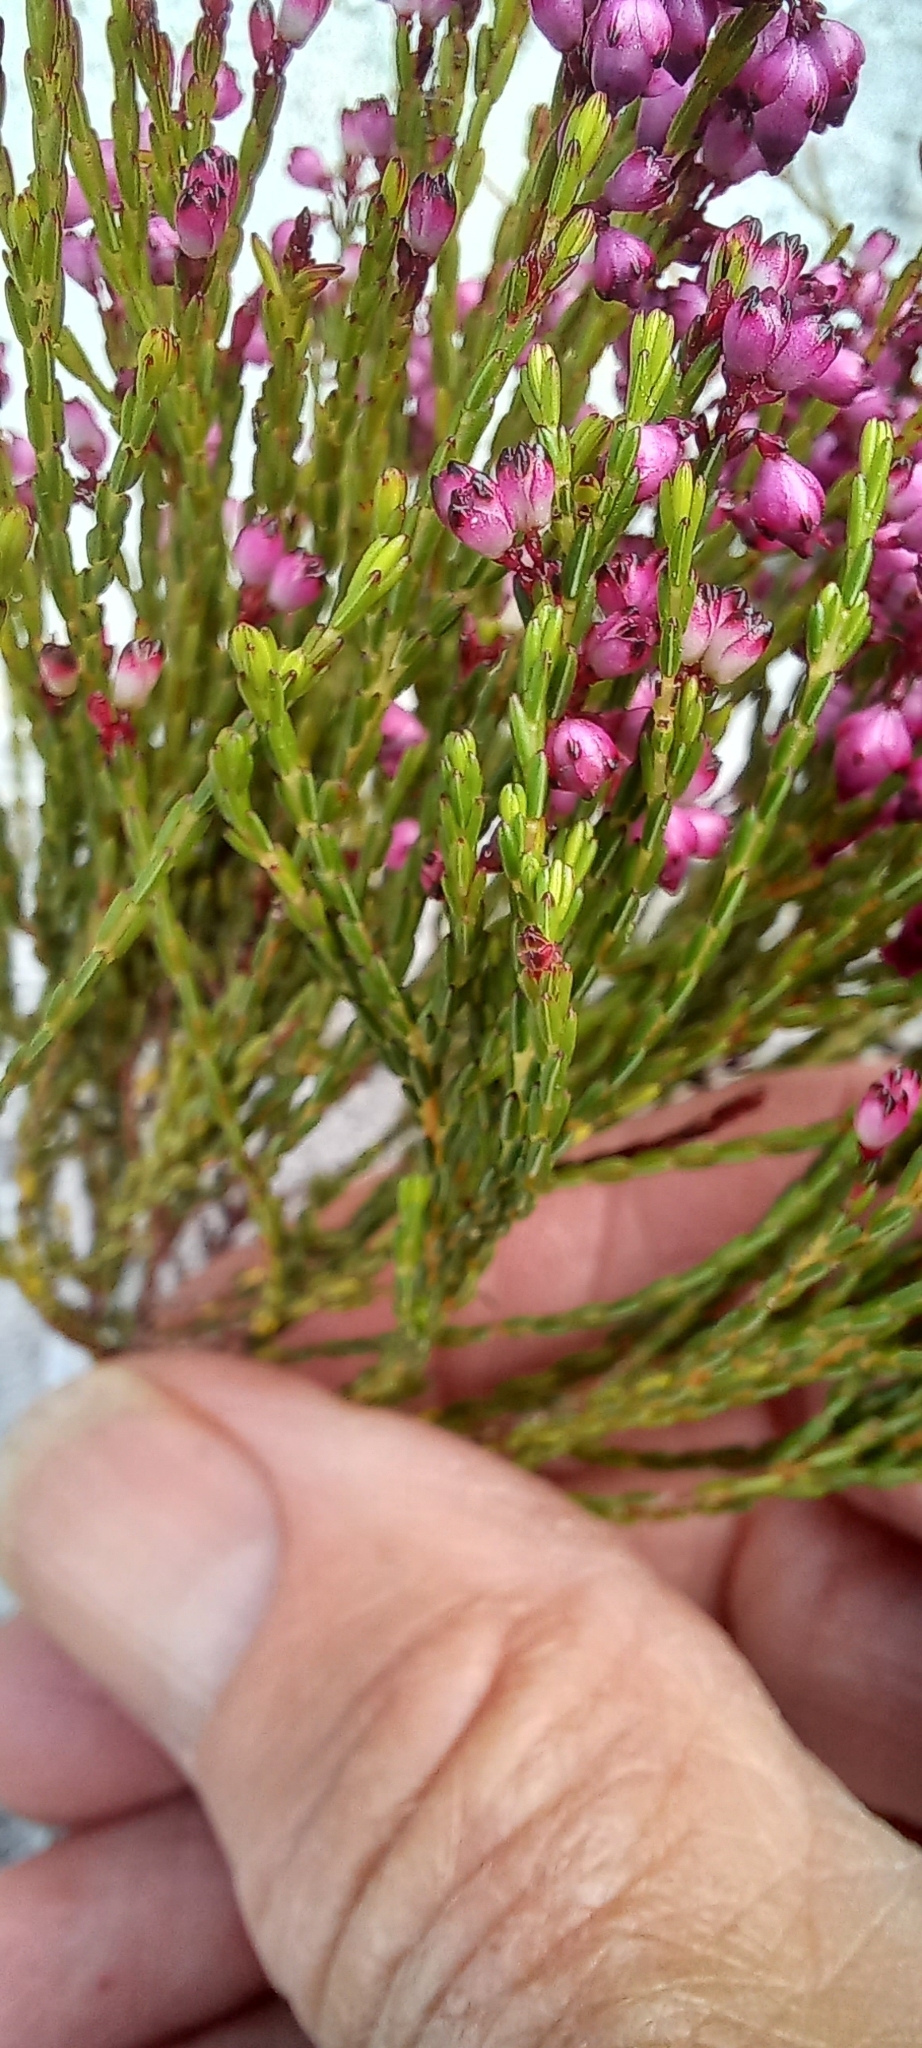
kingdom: Plantae
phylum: Tracheophyta
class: Magnoliopsida
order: Ericales
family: Ericaceae
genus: Erica
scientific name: Erica rhopalantha
